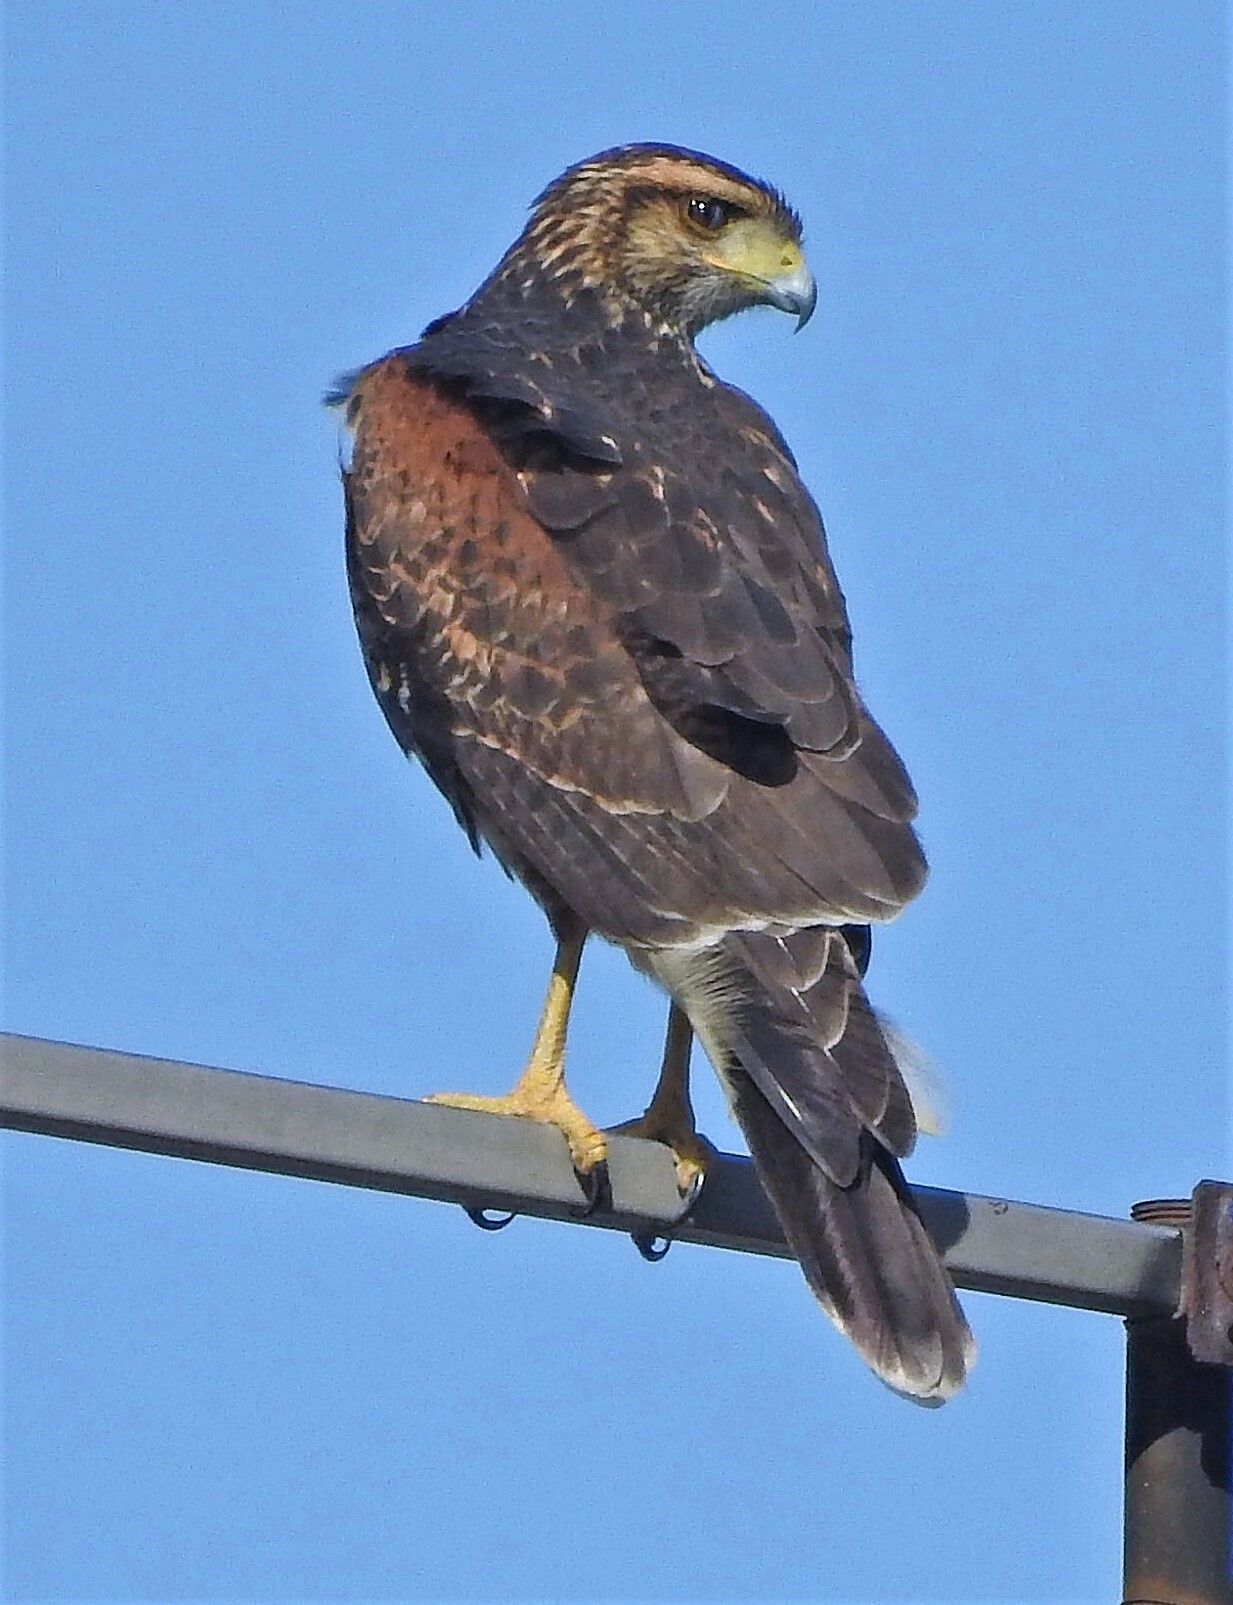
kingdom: Animalia
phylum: Chordata
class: Aves
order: Accipitriformes
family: Accipitridae
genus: Parabuteo
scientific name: Parabuteo unicinctus
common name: Harris's hawk
